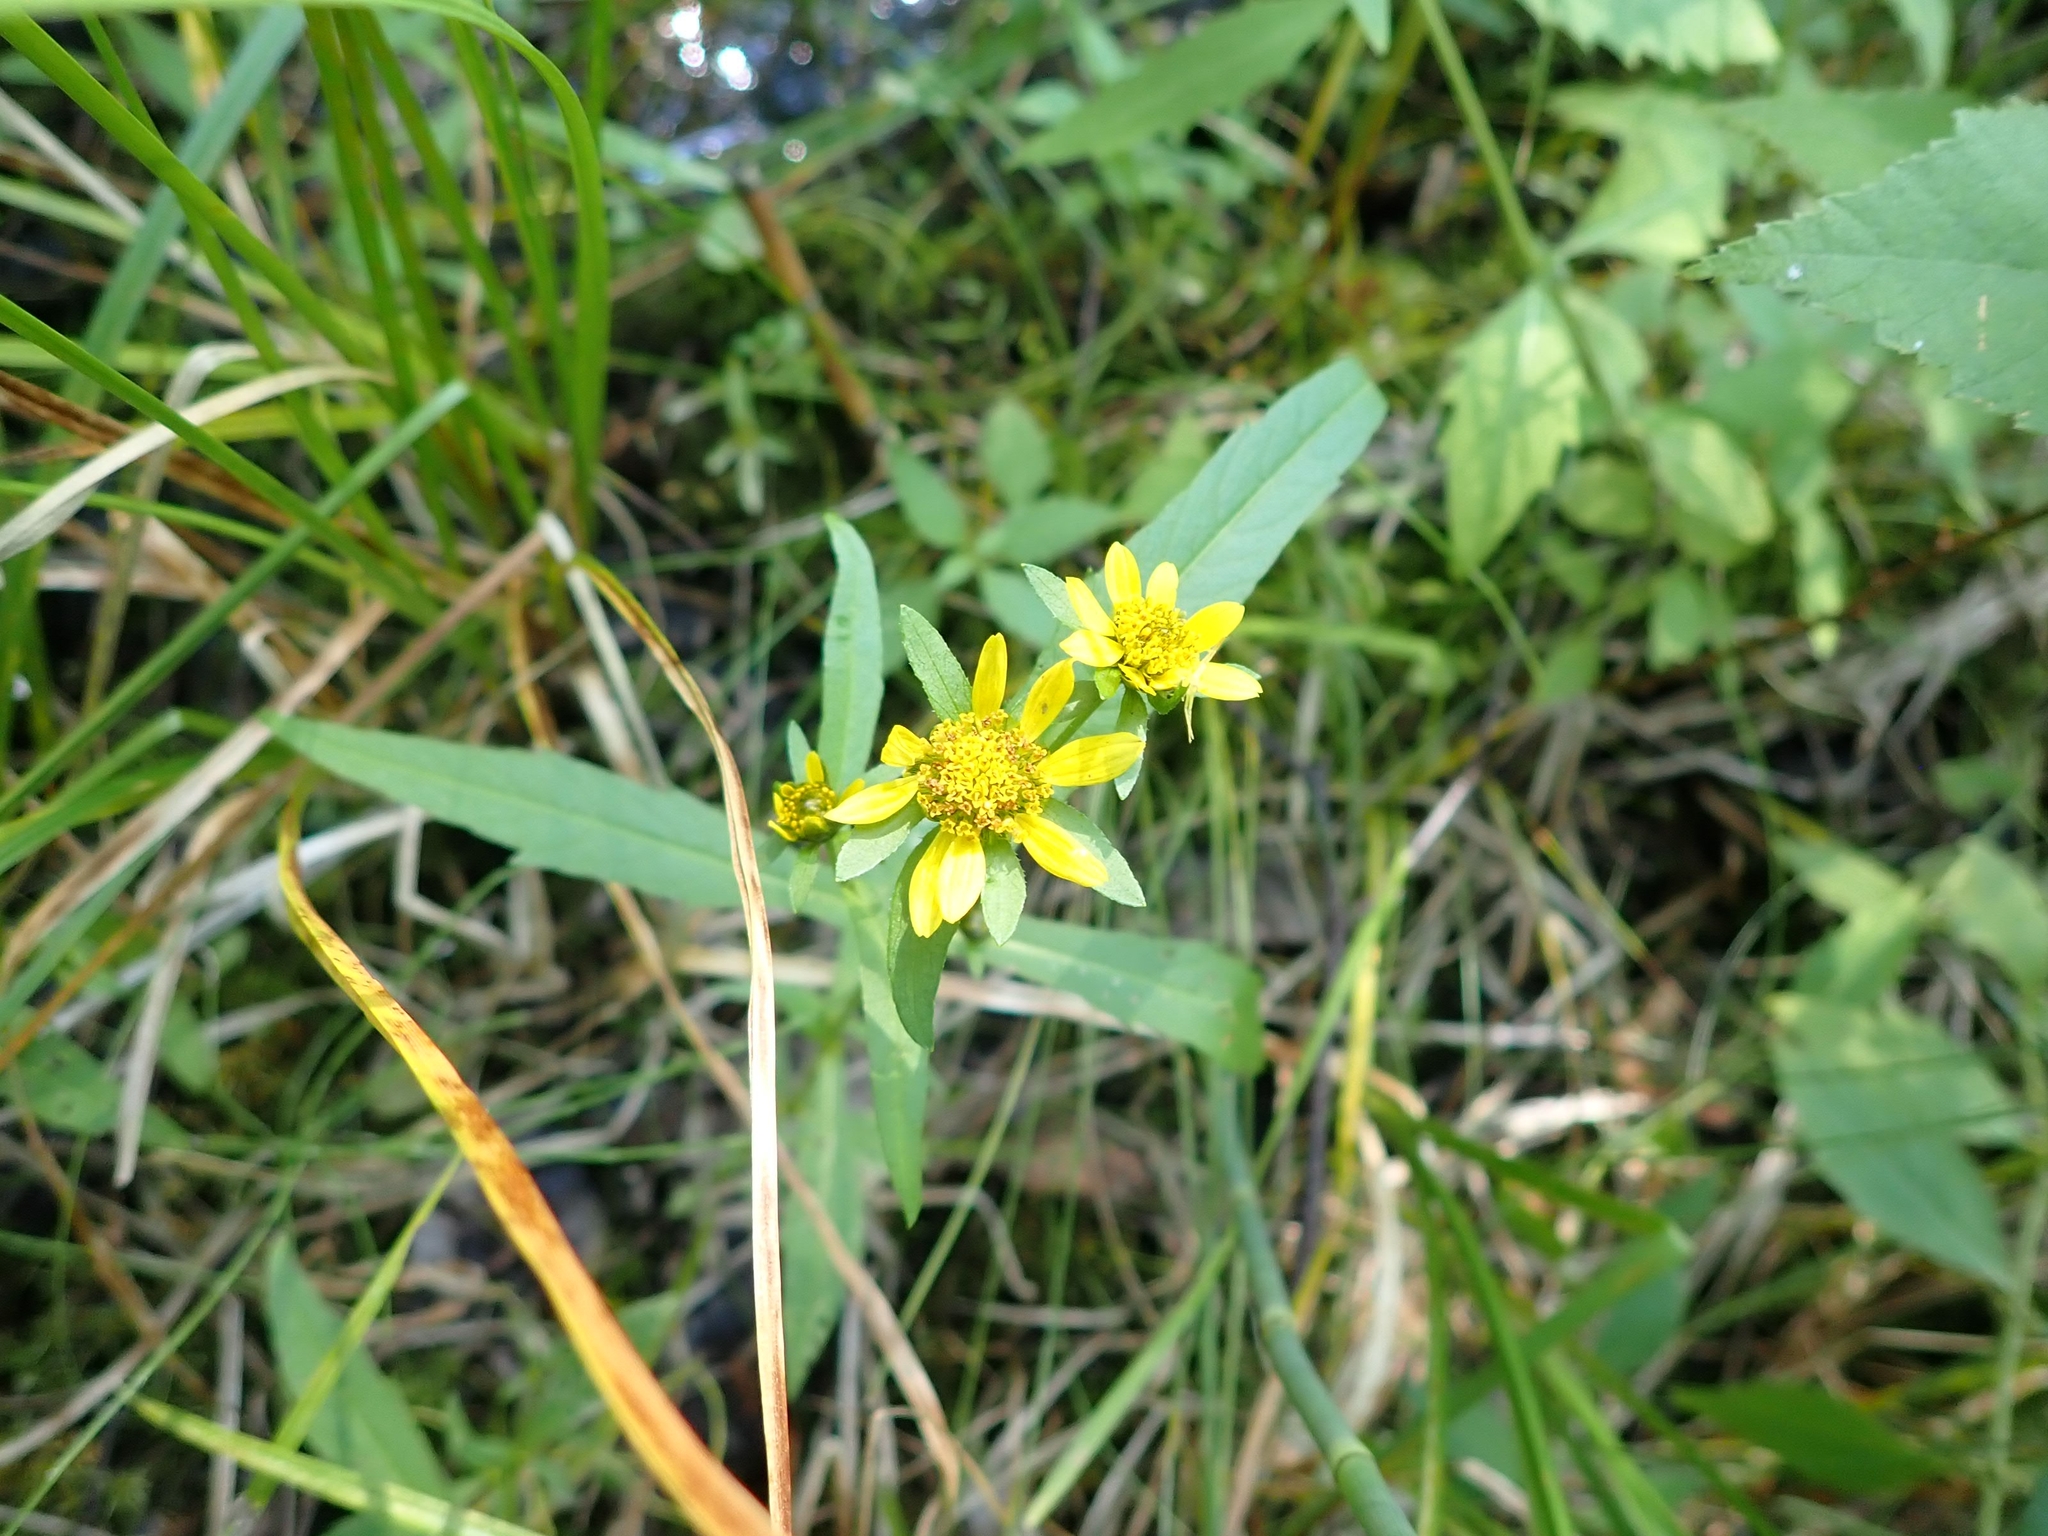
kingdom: Plantae
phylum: Tracheophyta
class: Magnoliopsida
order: Asterales
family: Asteraceae
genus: Bidens
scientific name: Bidens cernua
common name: Nodding bur-marigold
